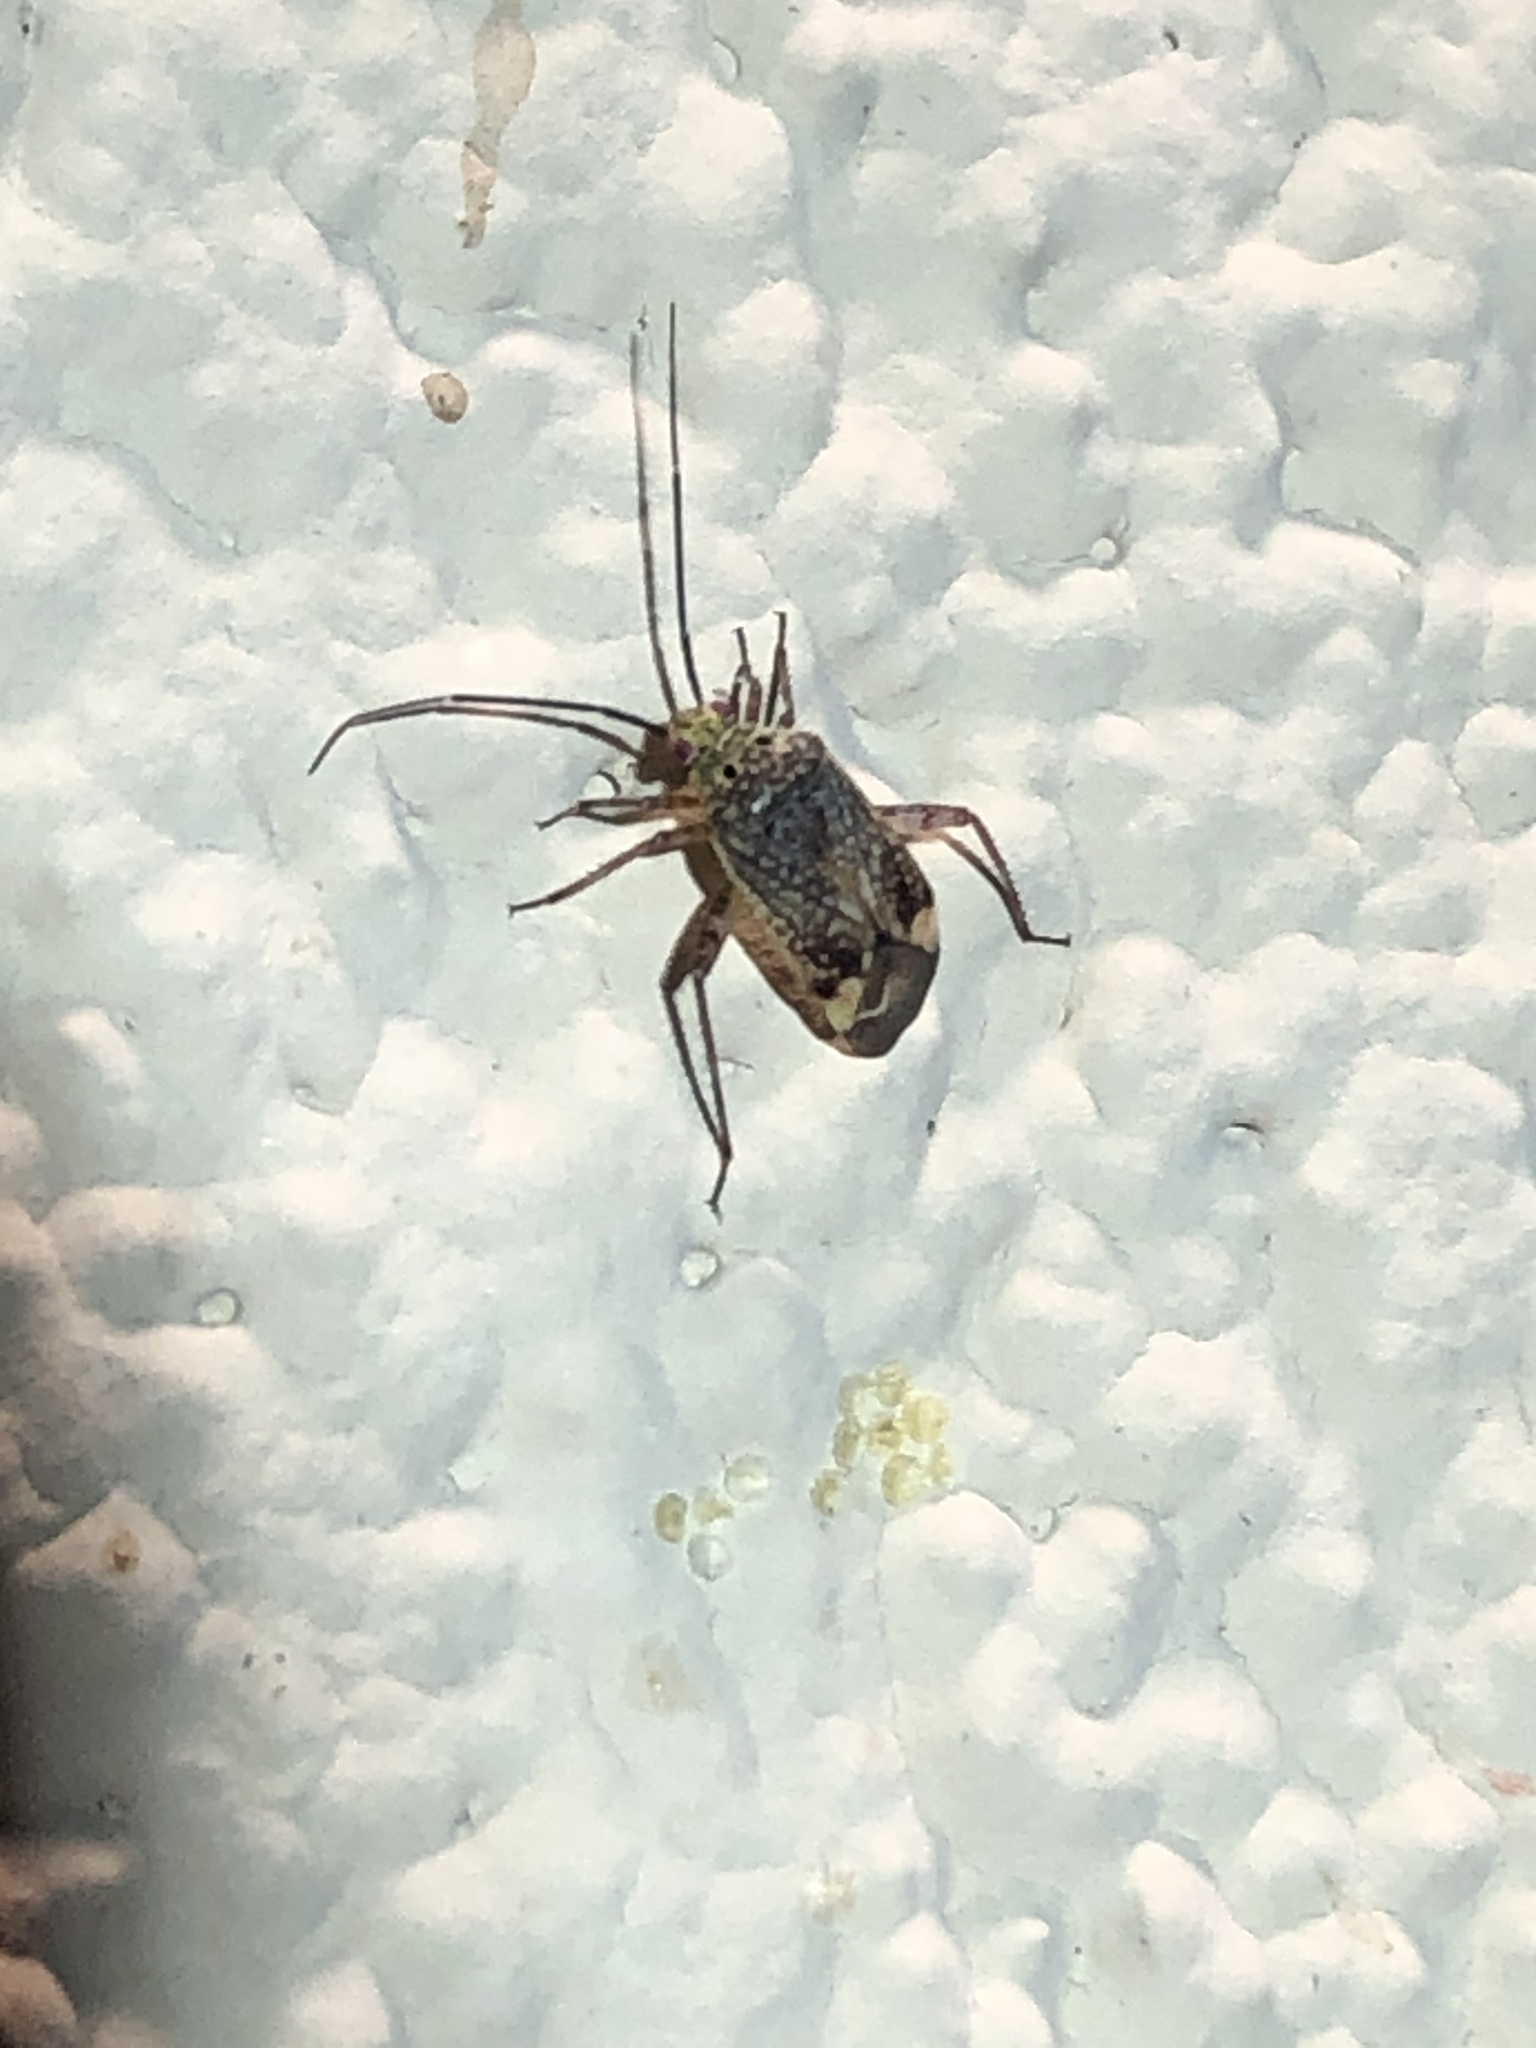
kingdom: Animalia
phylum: Arthropoda
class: Insecta
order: Hemiptera
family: Miridae
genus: Taedia
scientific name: Taedia nicholi
